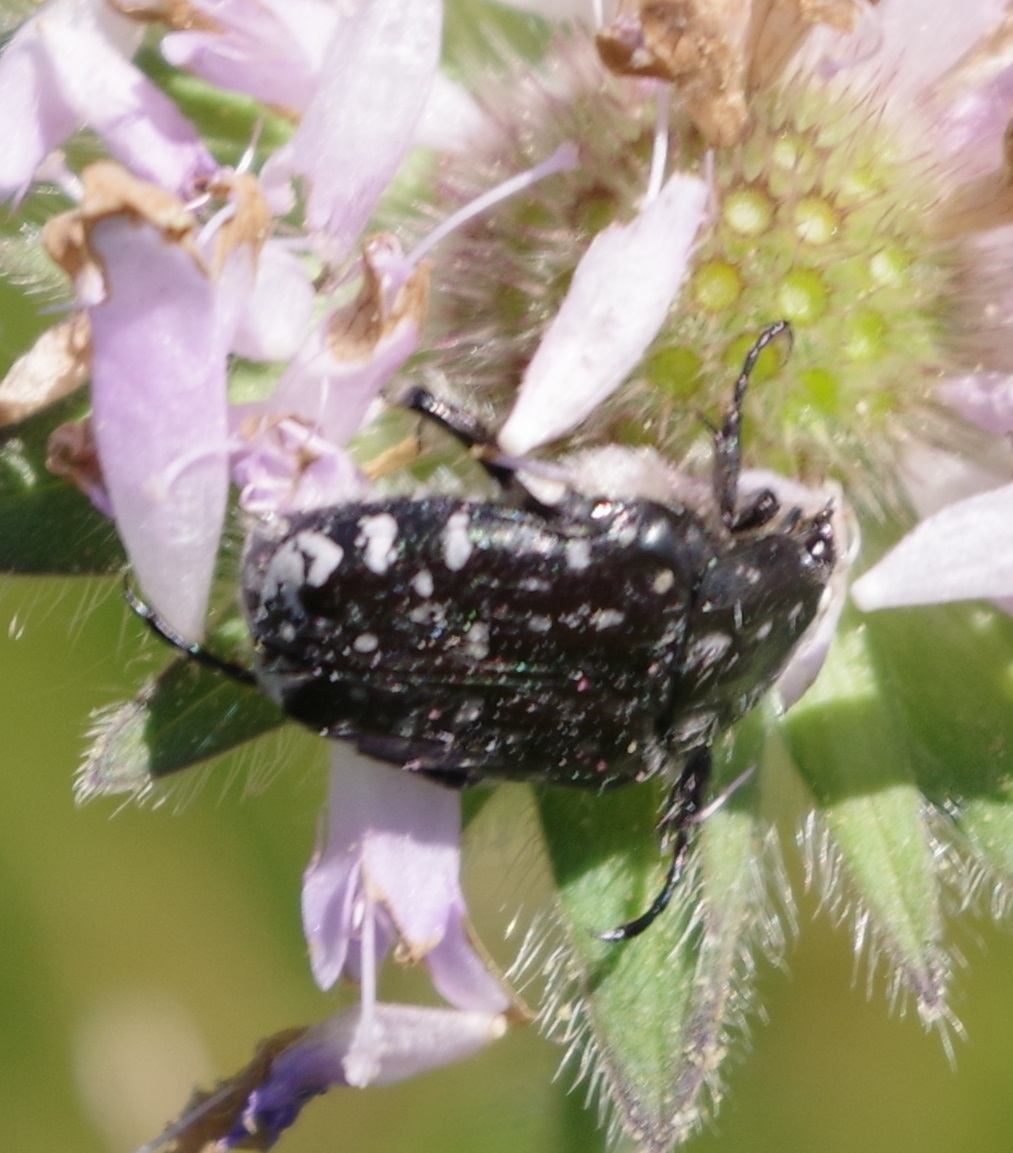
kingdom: Animalia
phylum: Arthropoda
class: Insecta
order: Coleoptera
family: Scarabaeidae
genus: Oxythyrea
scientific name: Oxythyrea funesta
